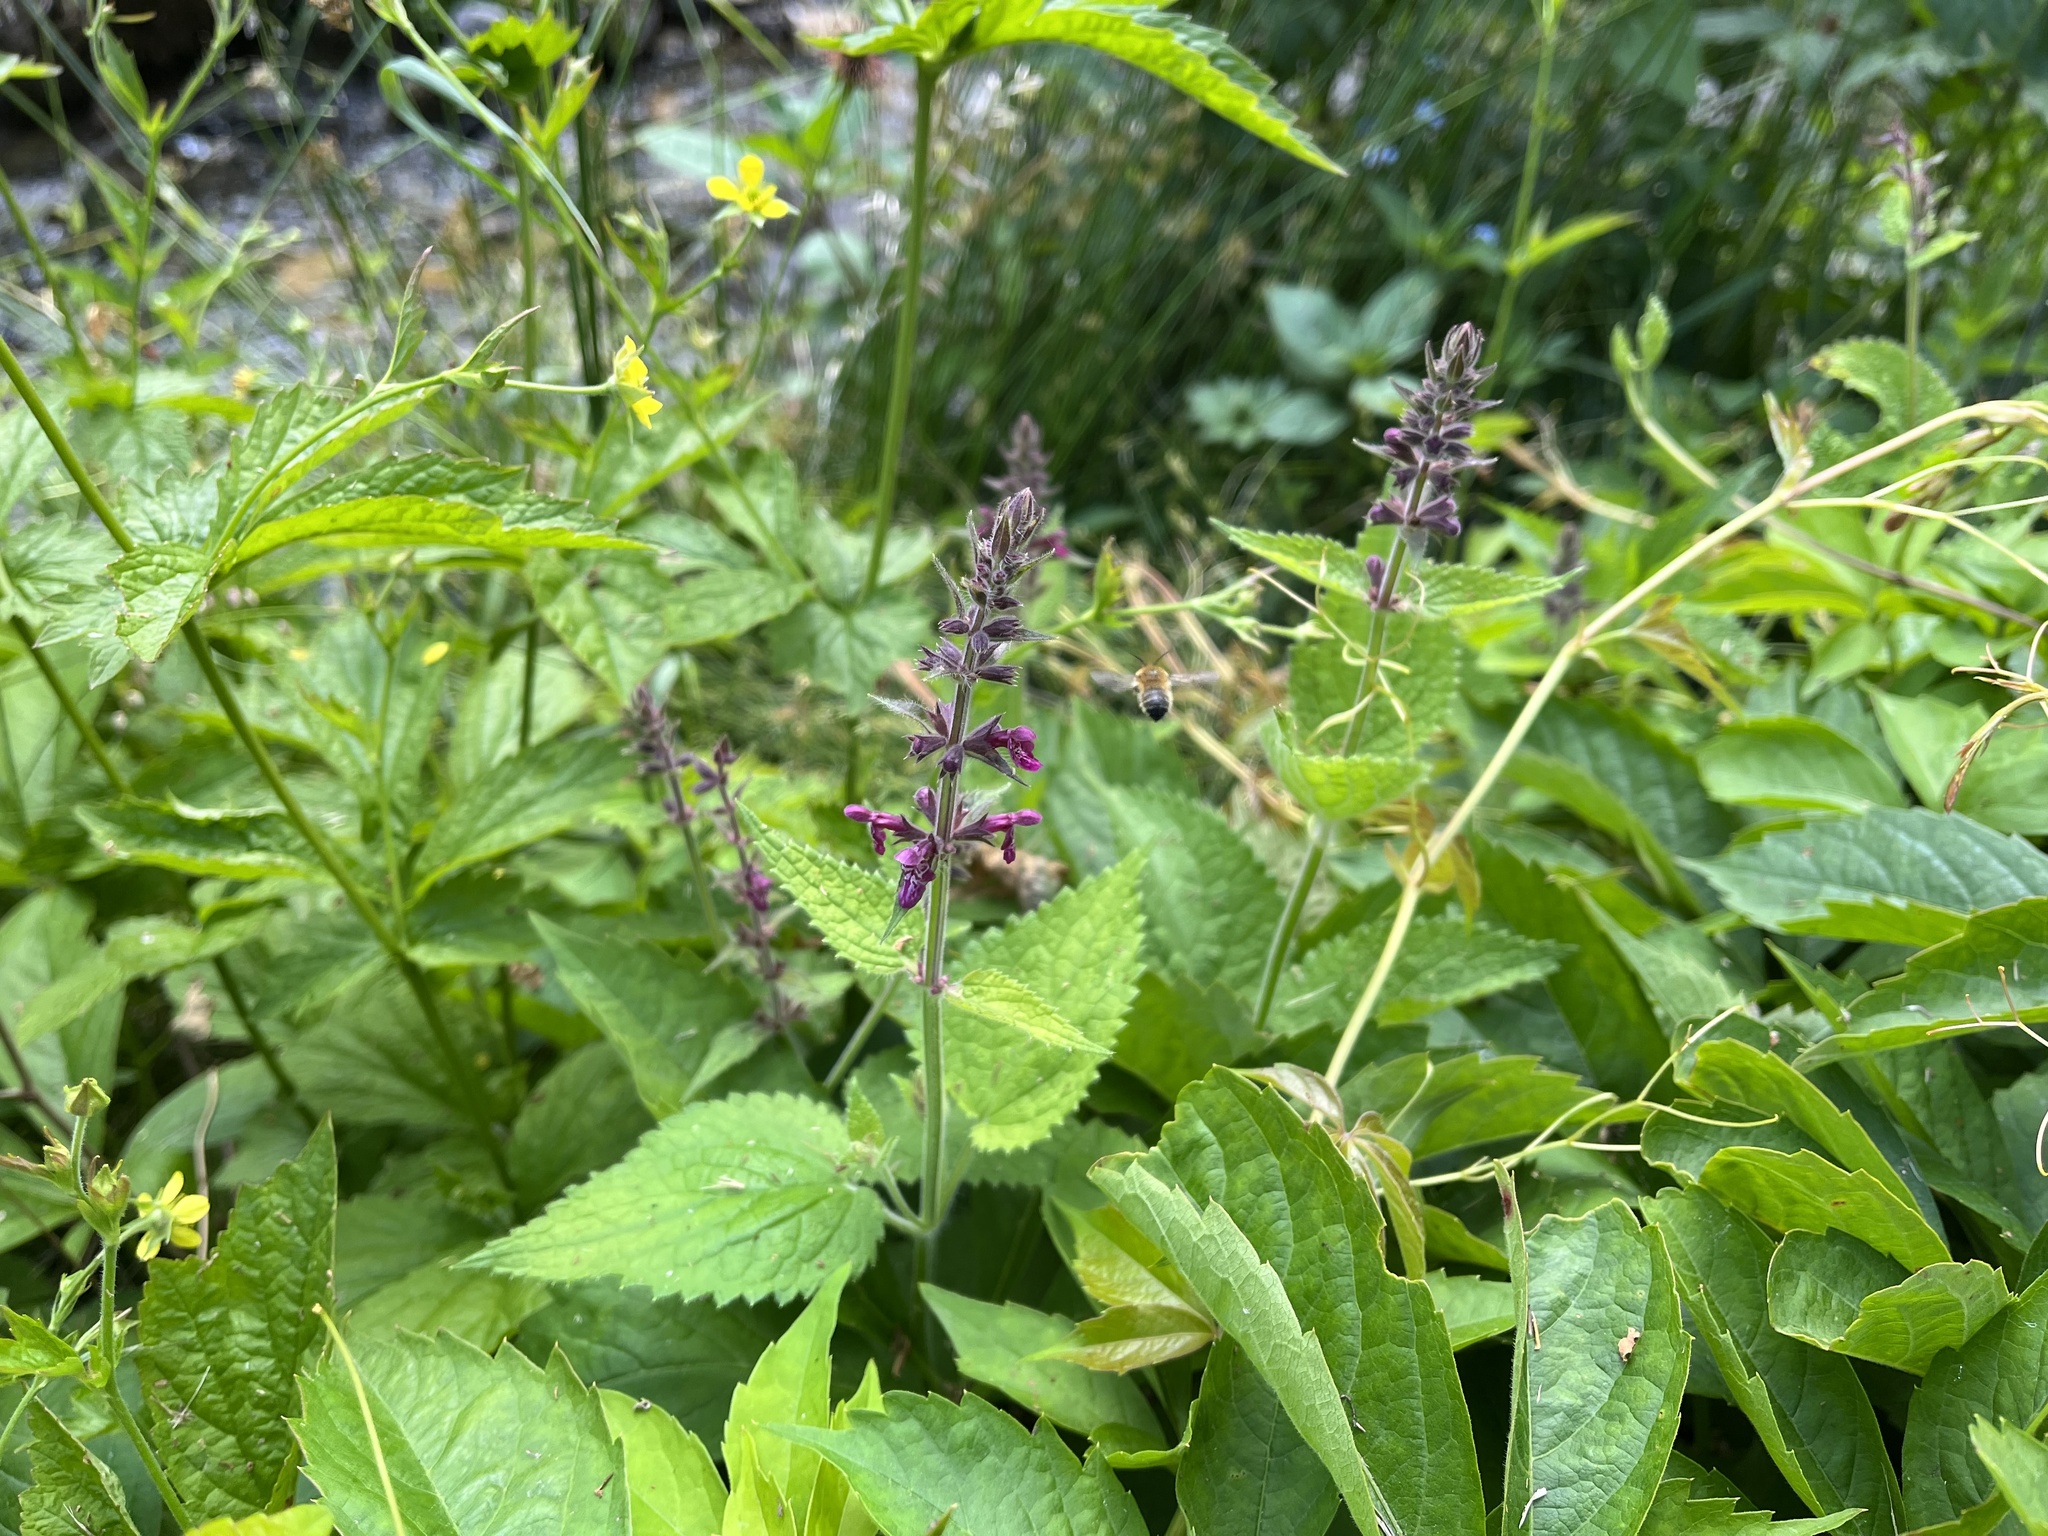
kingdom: Plantae
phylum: Tracheophyta
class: Magnoliopsida
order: Lamiales
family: Lamiaceae
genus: Stachys
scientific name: Stachys sylvatica
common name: Hedge woundwort
